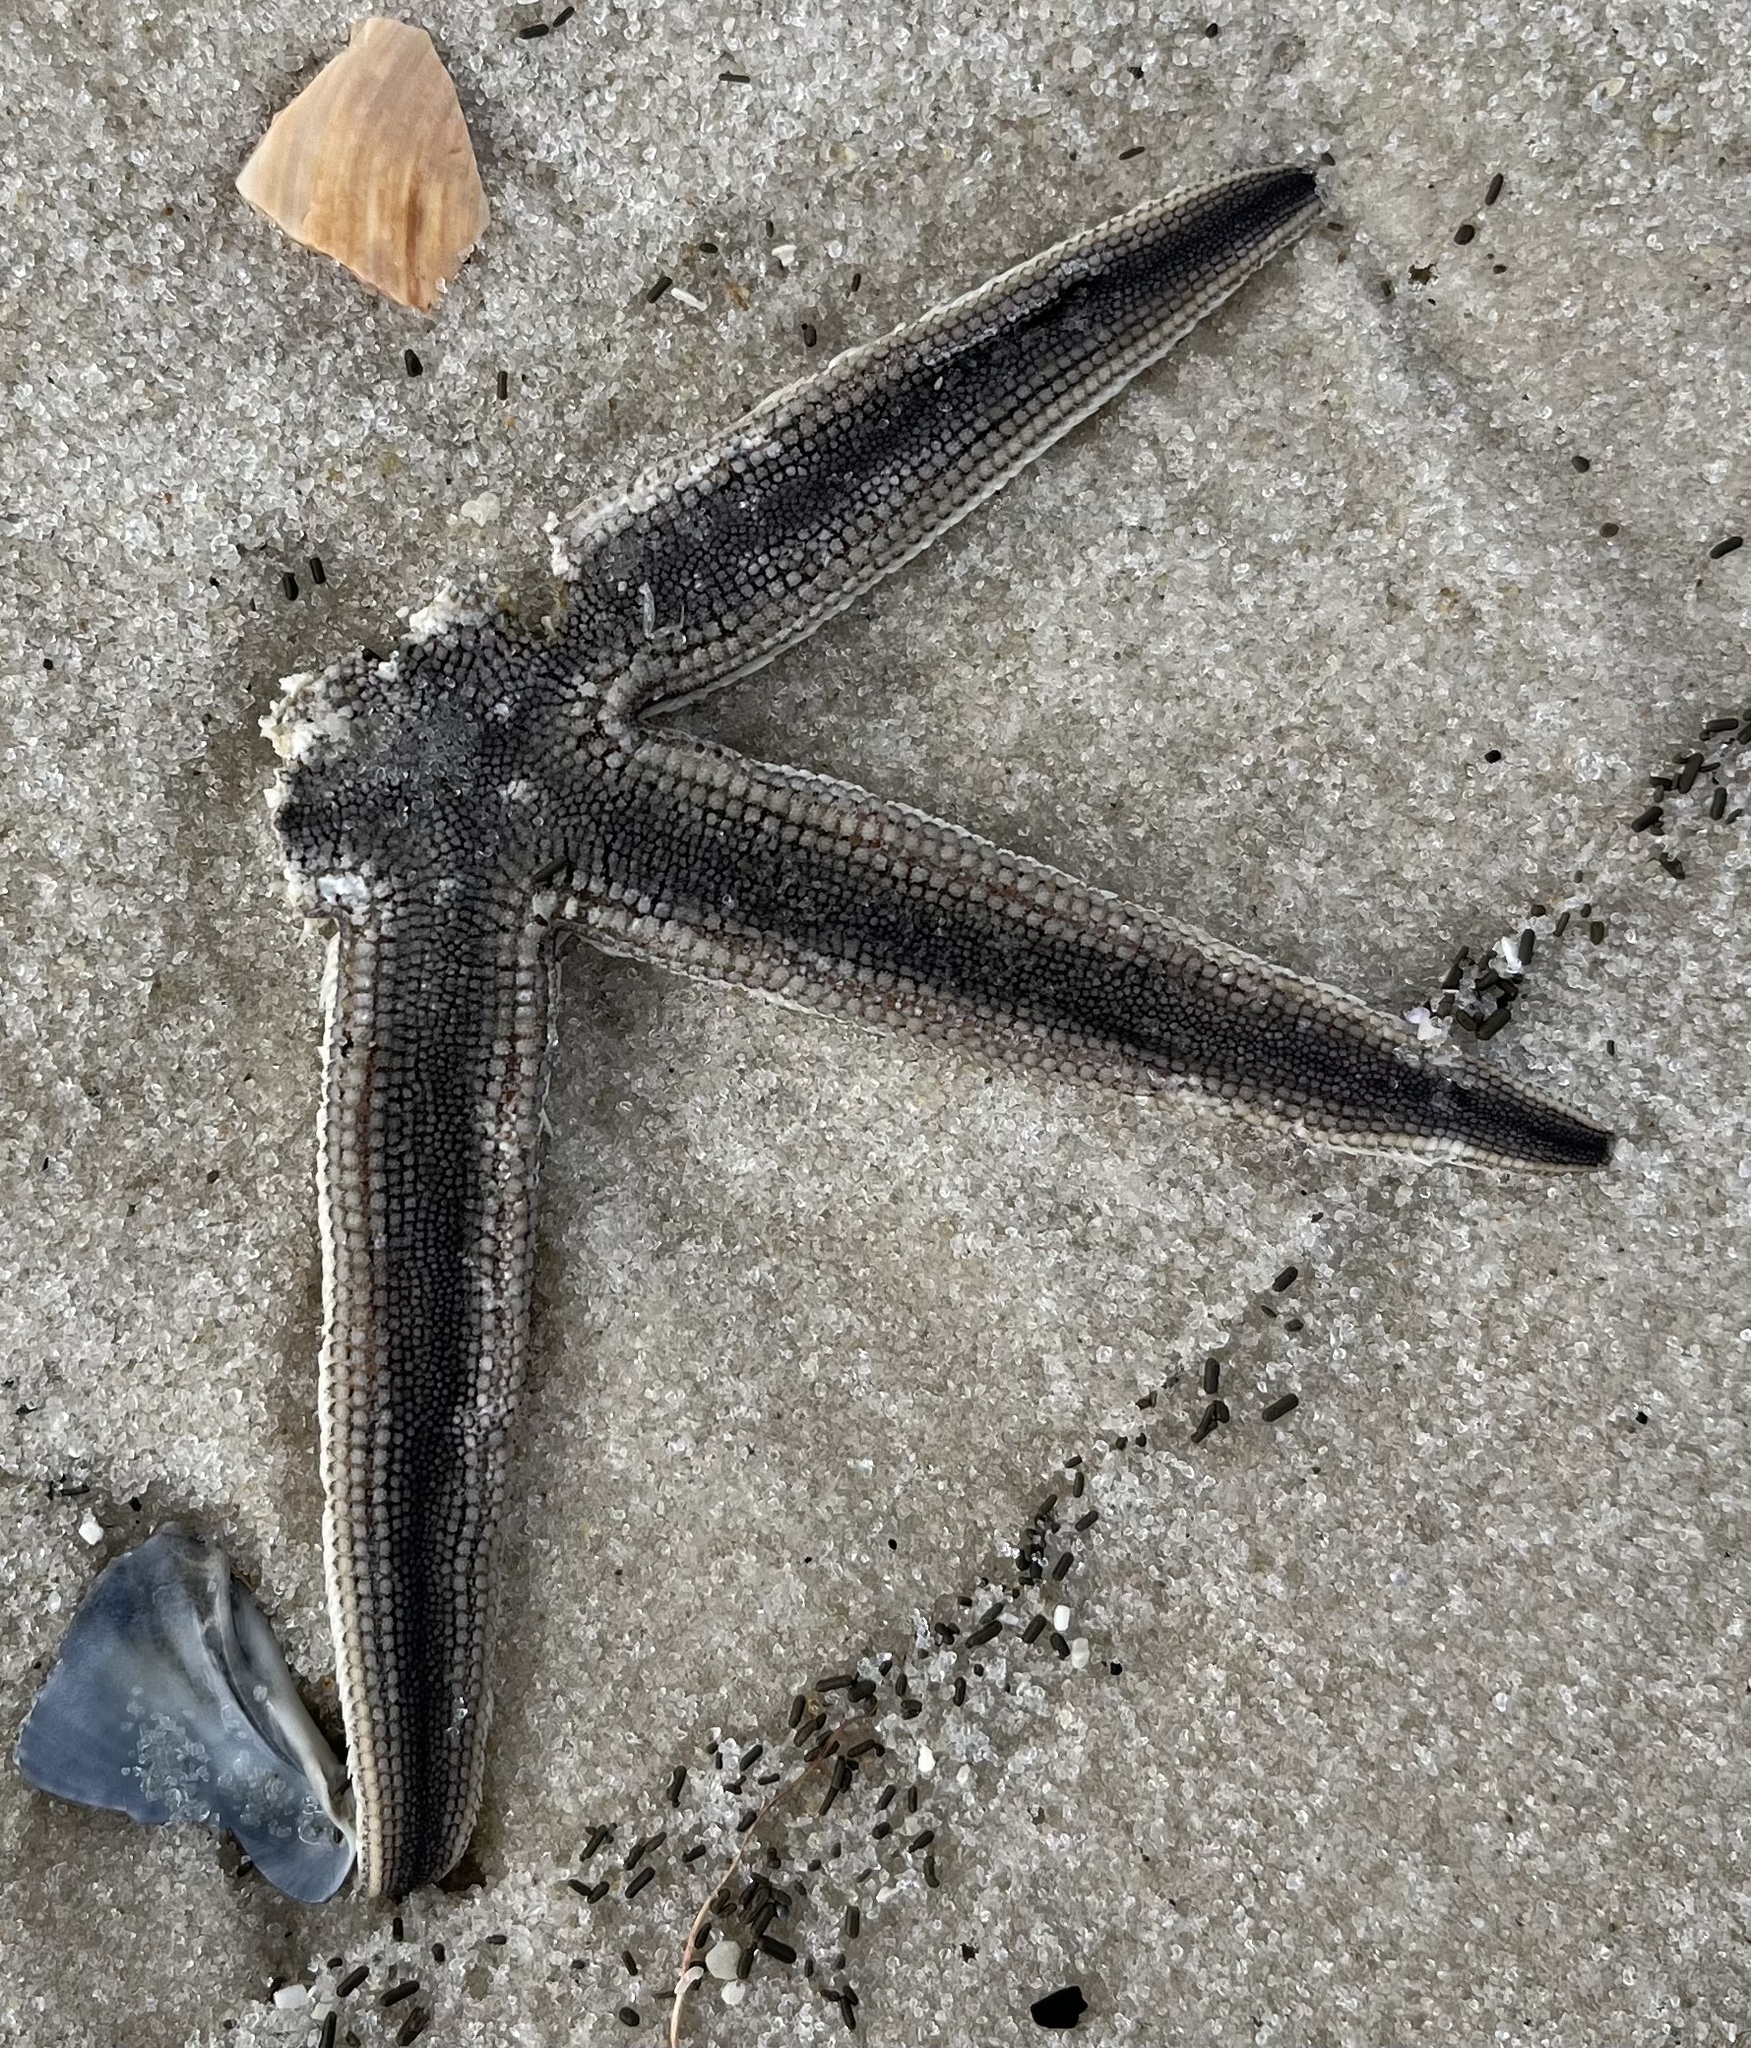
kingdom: Animalia
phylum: Echinodermata
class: Asteroidea
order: Paxillosida
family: Luidiidae
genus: Luidia
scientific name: Luidia clathrata
